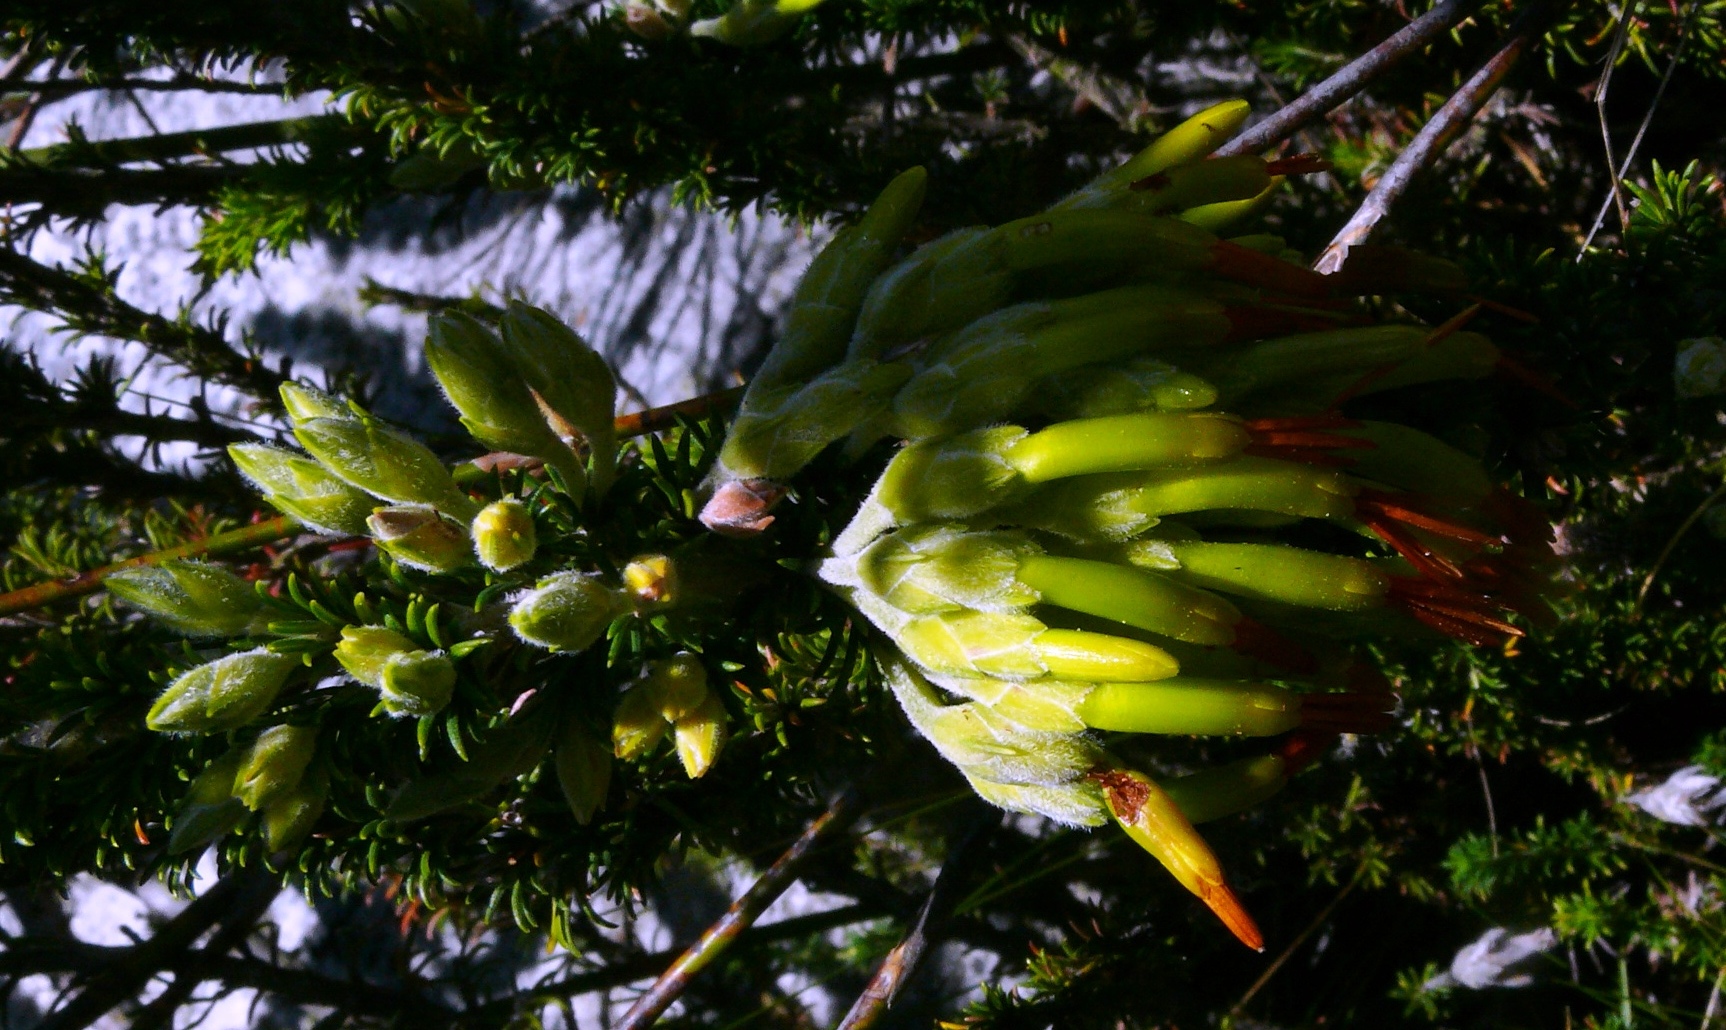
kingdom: Plantae
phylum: Tracheophyta
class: Magnoliopsida
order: Ericales
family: Ericaceae
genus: Erica
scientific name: Erica coccinea
